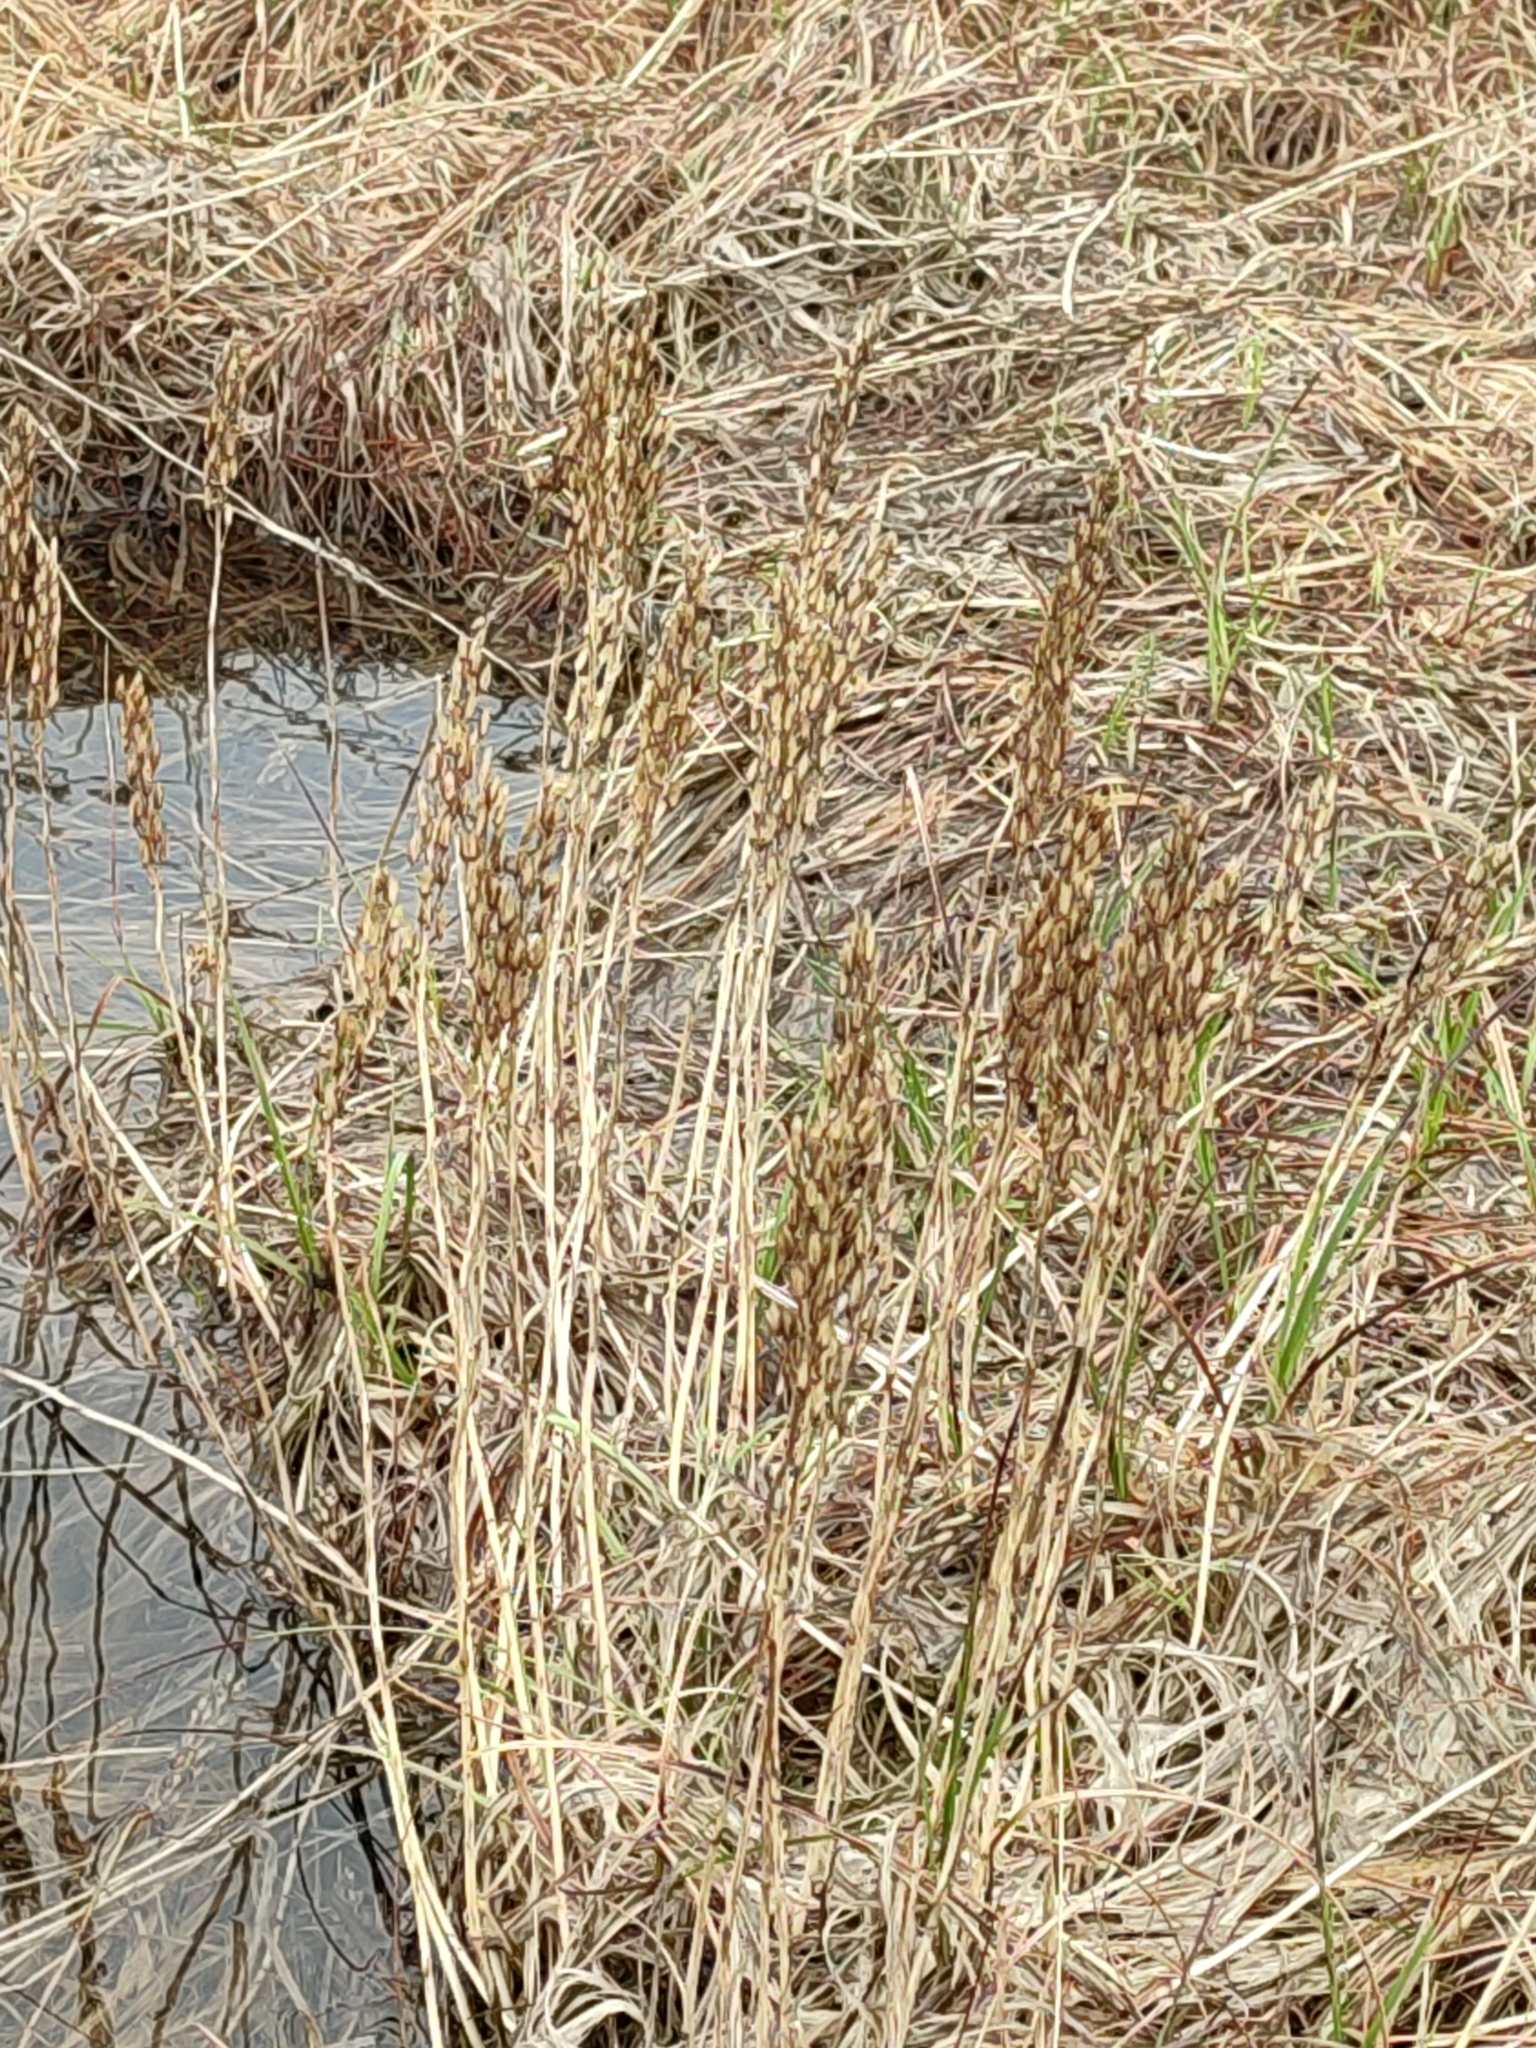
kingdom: Plantae
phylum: Tracheophyta
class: Liliopsida
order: Dioscoreales
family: Nartheciaceae
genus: Narthecium
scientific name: Narthecium ossifragum
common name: Bog asphodel
